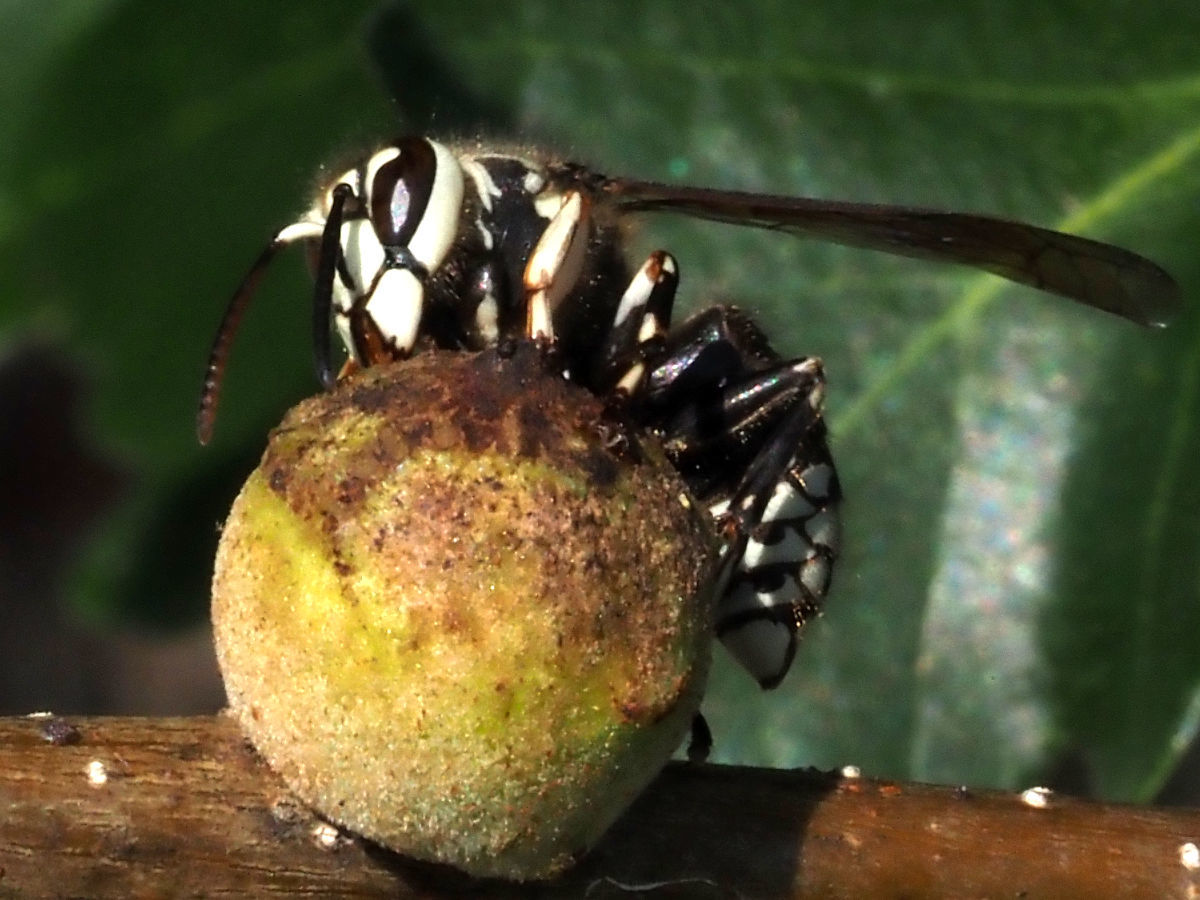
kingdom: Animalia
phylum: Arthropoda
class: Insecta
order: Hymenoptera
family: Cynipidae
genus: Disholcaspis
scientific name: Disholcaspis
